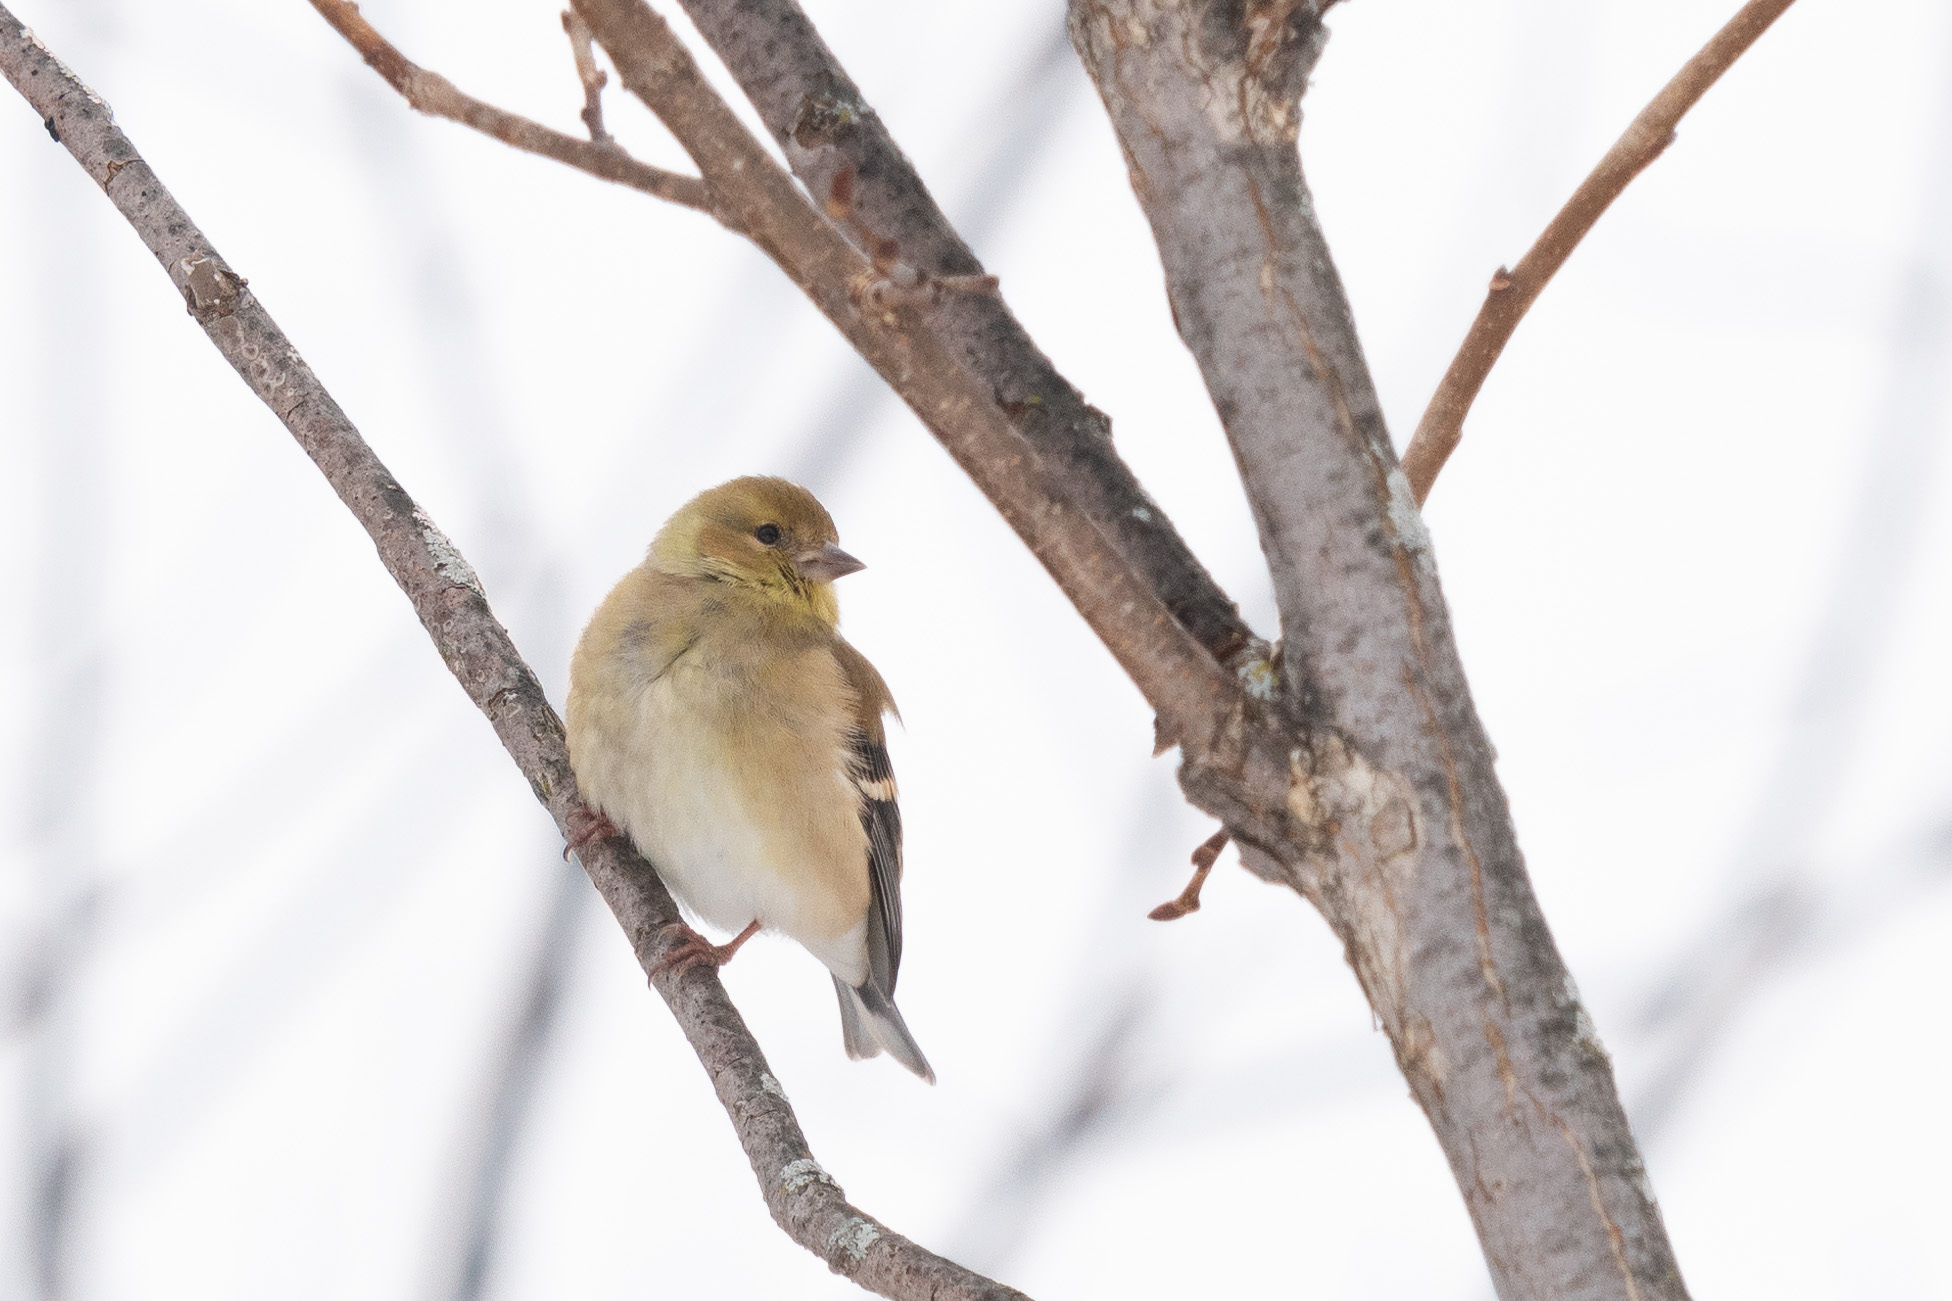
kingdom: Animalia
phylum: Chordata
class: Aves
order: Passeriformes
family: Fringillidae
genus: Spinus
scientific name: Spinus tristis
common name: American goldfinch
